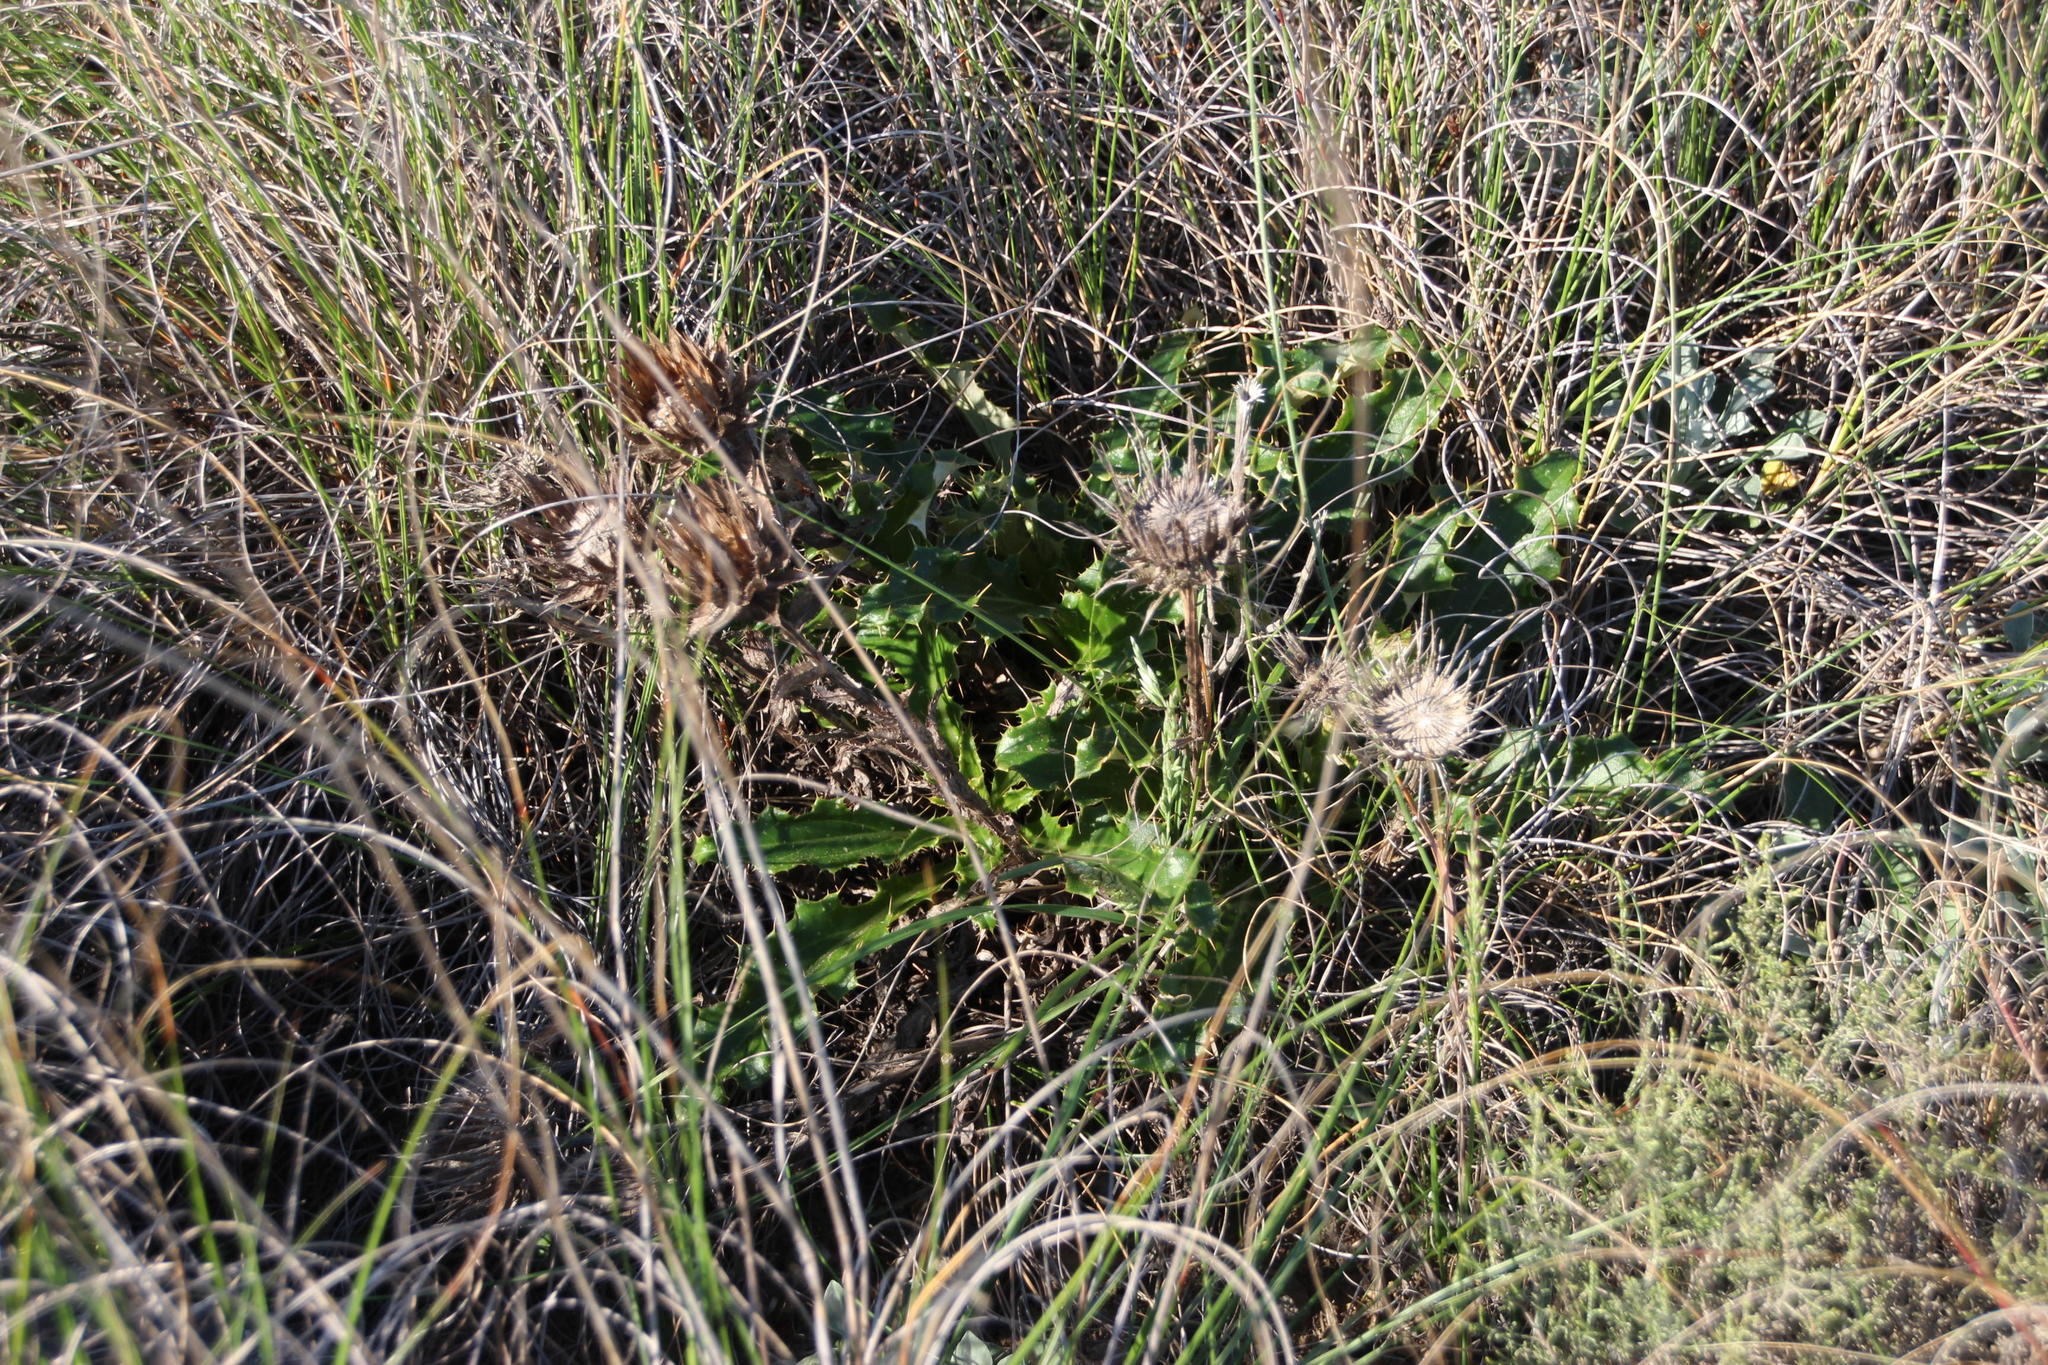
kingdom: Plantae
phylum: Tracheophyta
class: Magnoliopsida
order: Asterales
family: Asteraceae
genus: Berkheya
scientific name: Berkheya armata
